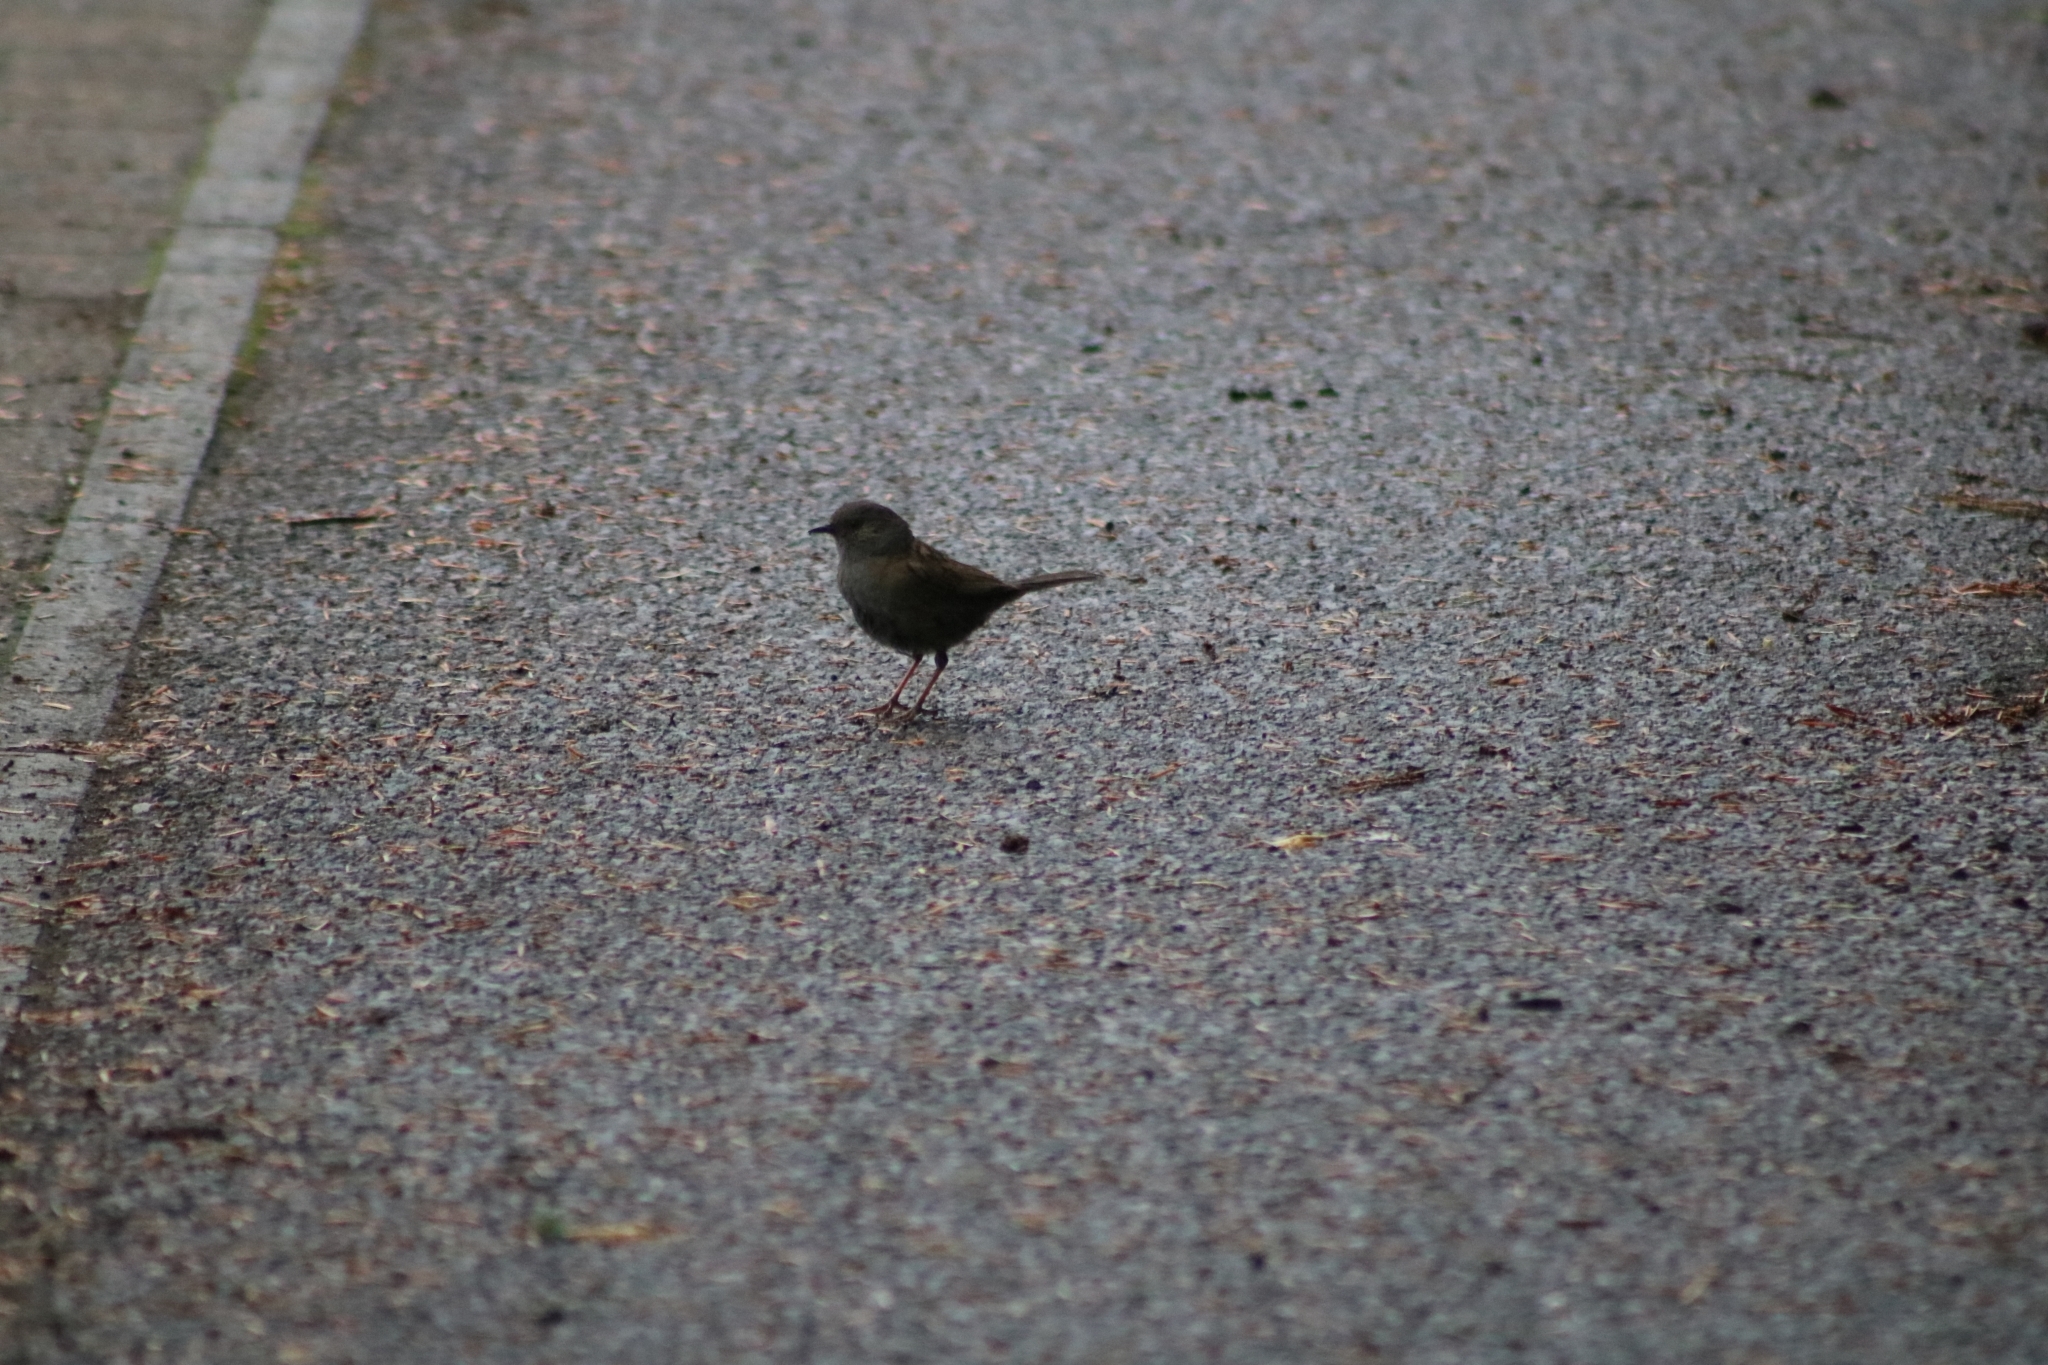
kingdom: Animalia
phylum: Chordata
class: Aves
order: Passeriformes
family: Prunellidae
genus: Prunella
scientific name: Prunella modularis
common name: Dunnock
